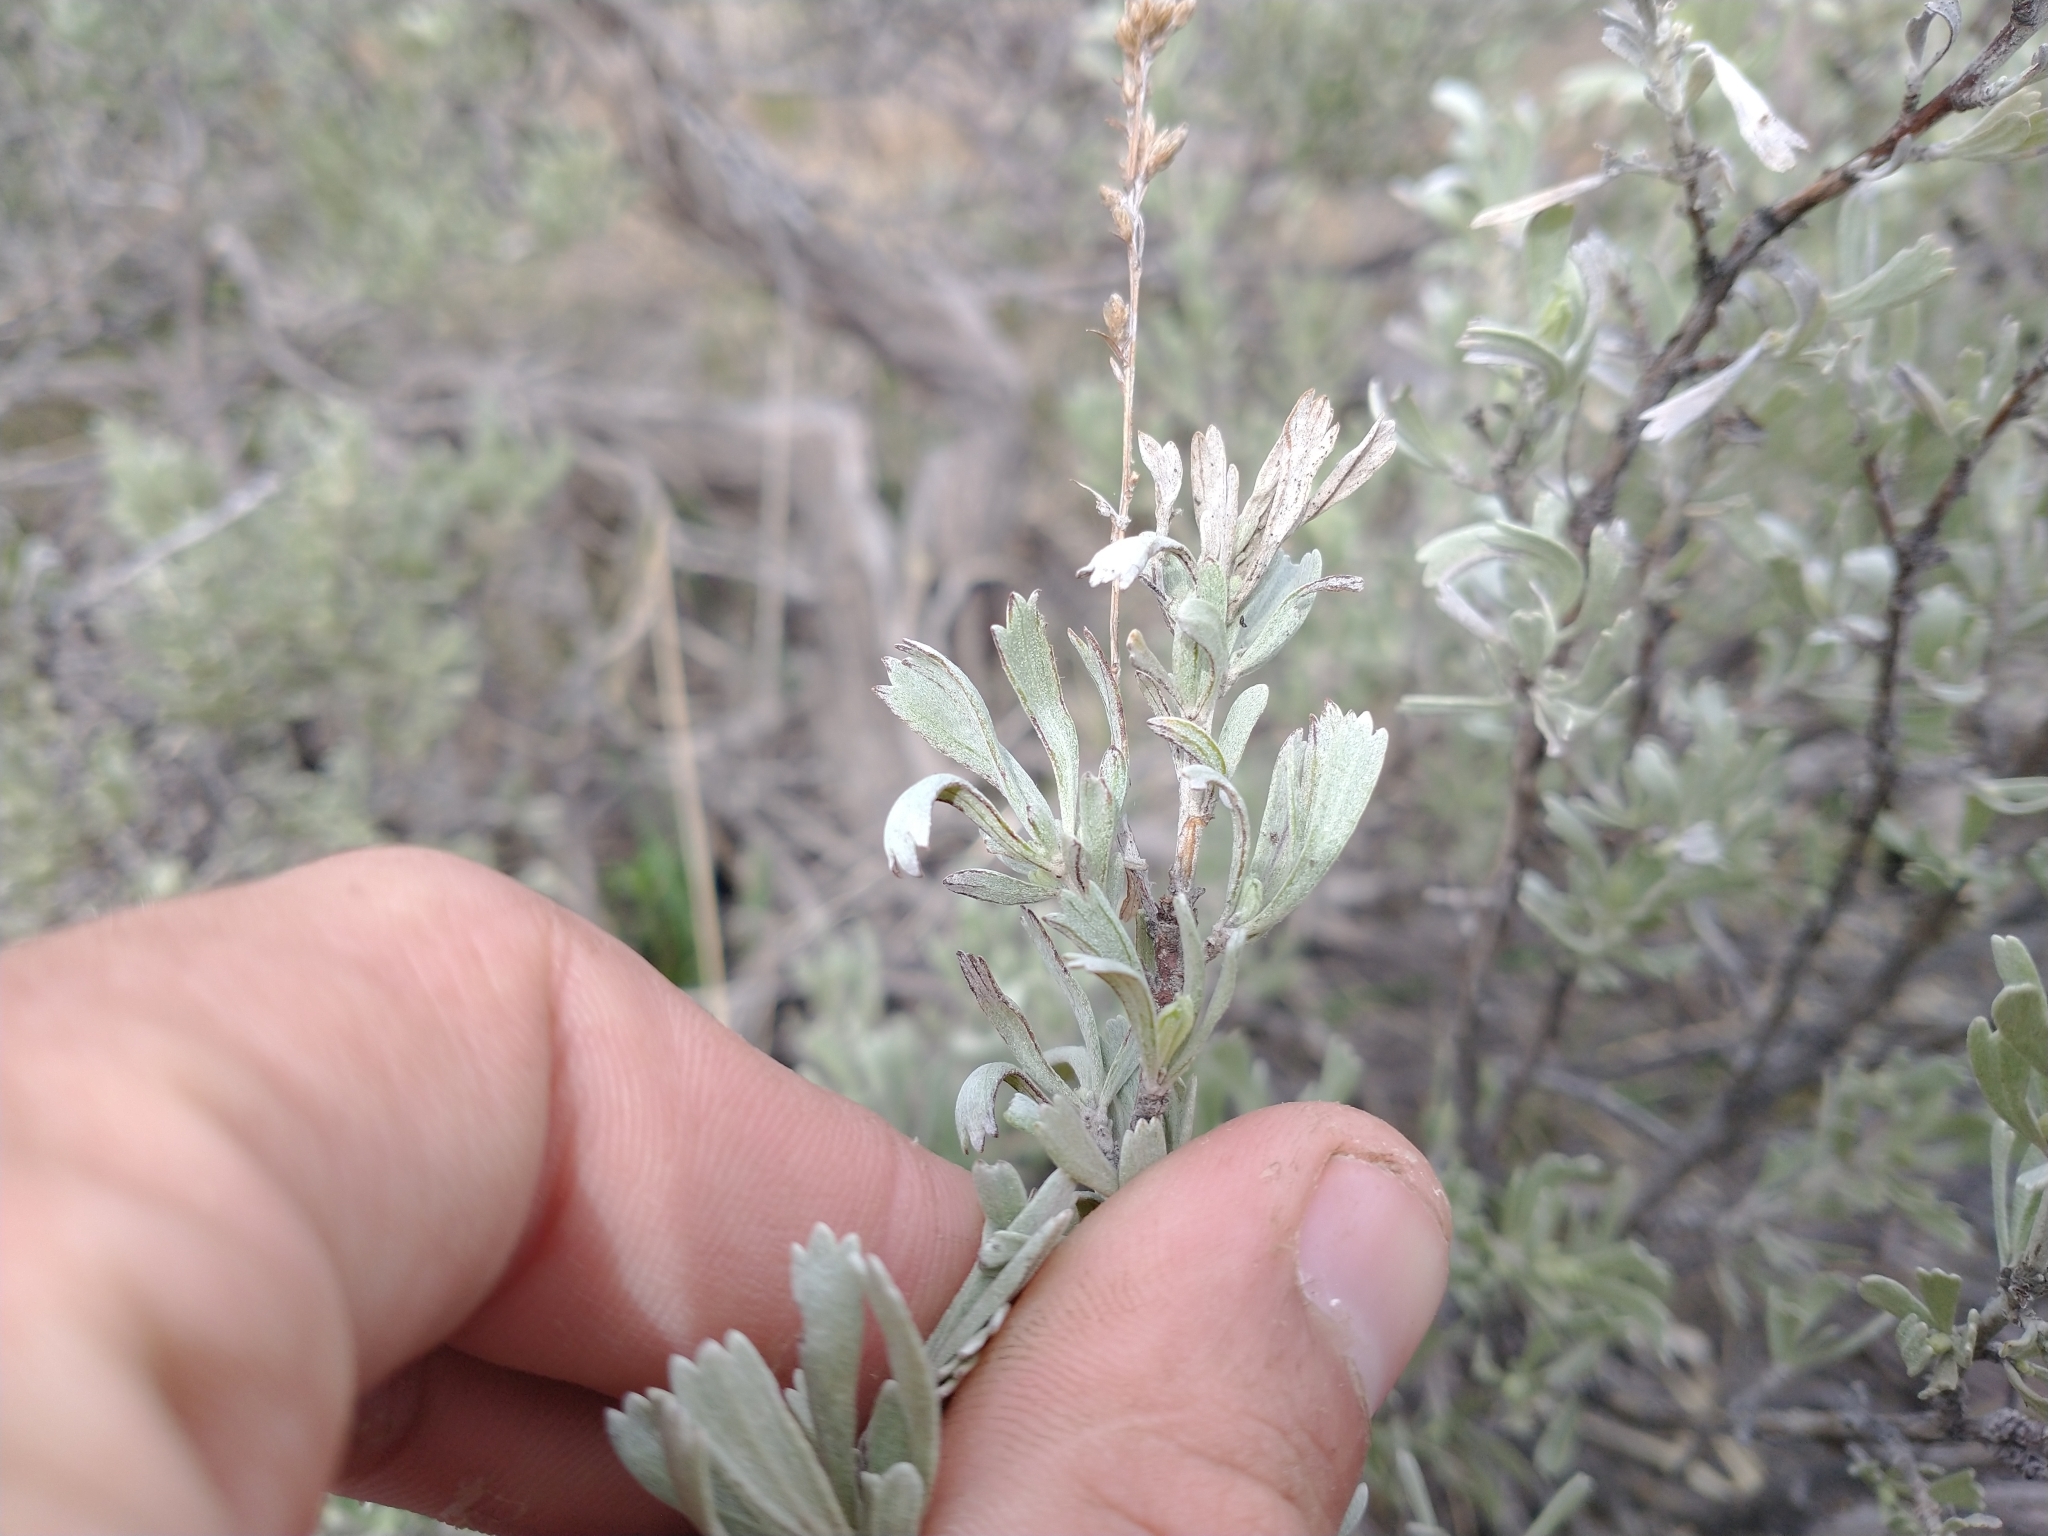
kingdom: Plantae
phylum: Tracheophyta
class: Magnoliopsida
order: Asterales
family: Asteraceae
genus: Artemisia
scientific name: Artemisia tridentata
